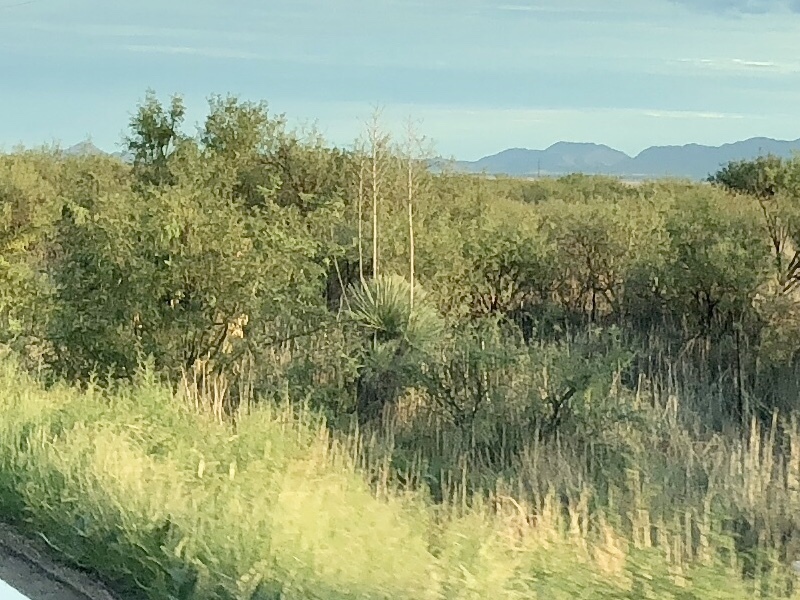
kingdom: Plantae
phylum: Tracheophyta
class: Liliopsida
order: Asparagales
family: Asparagaceae
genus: Yucca
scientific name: Yucca elata
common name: Palmella
